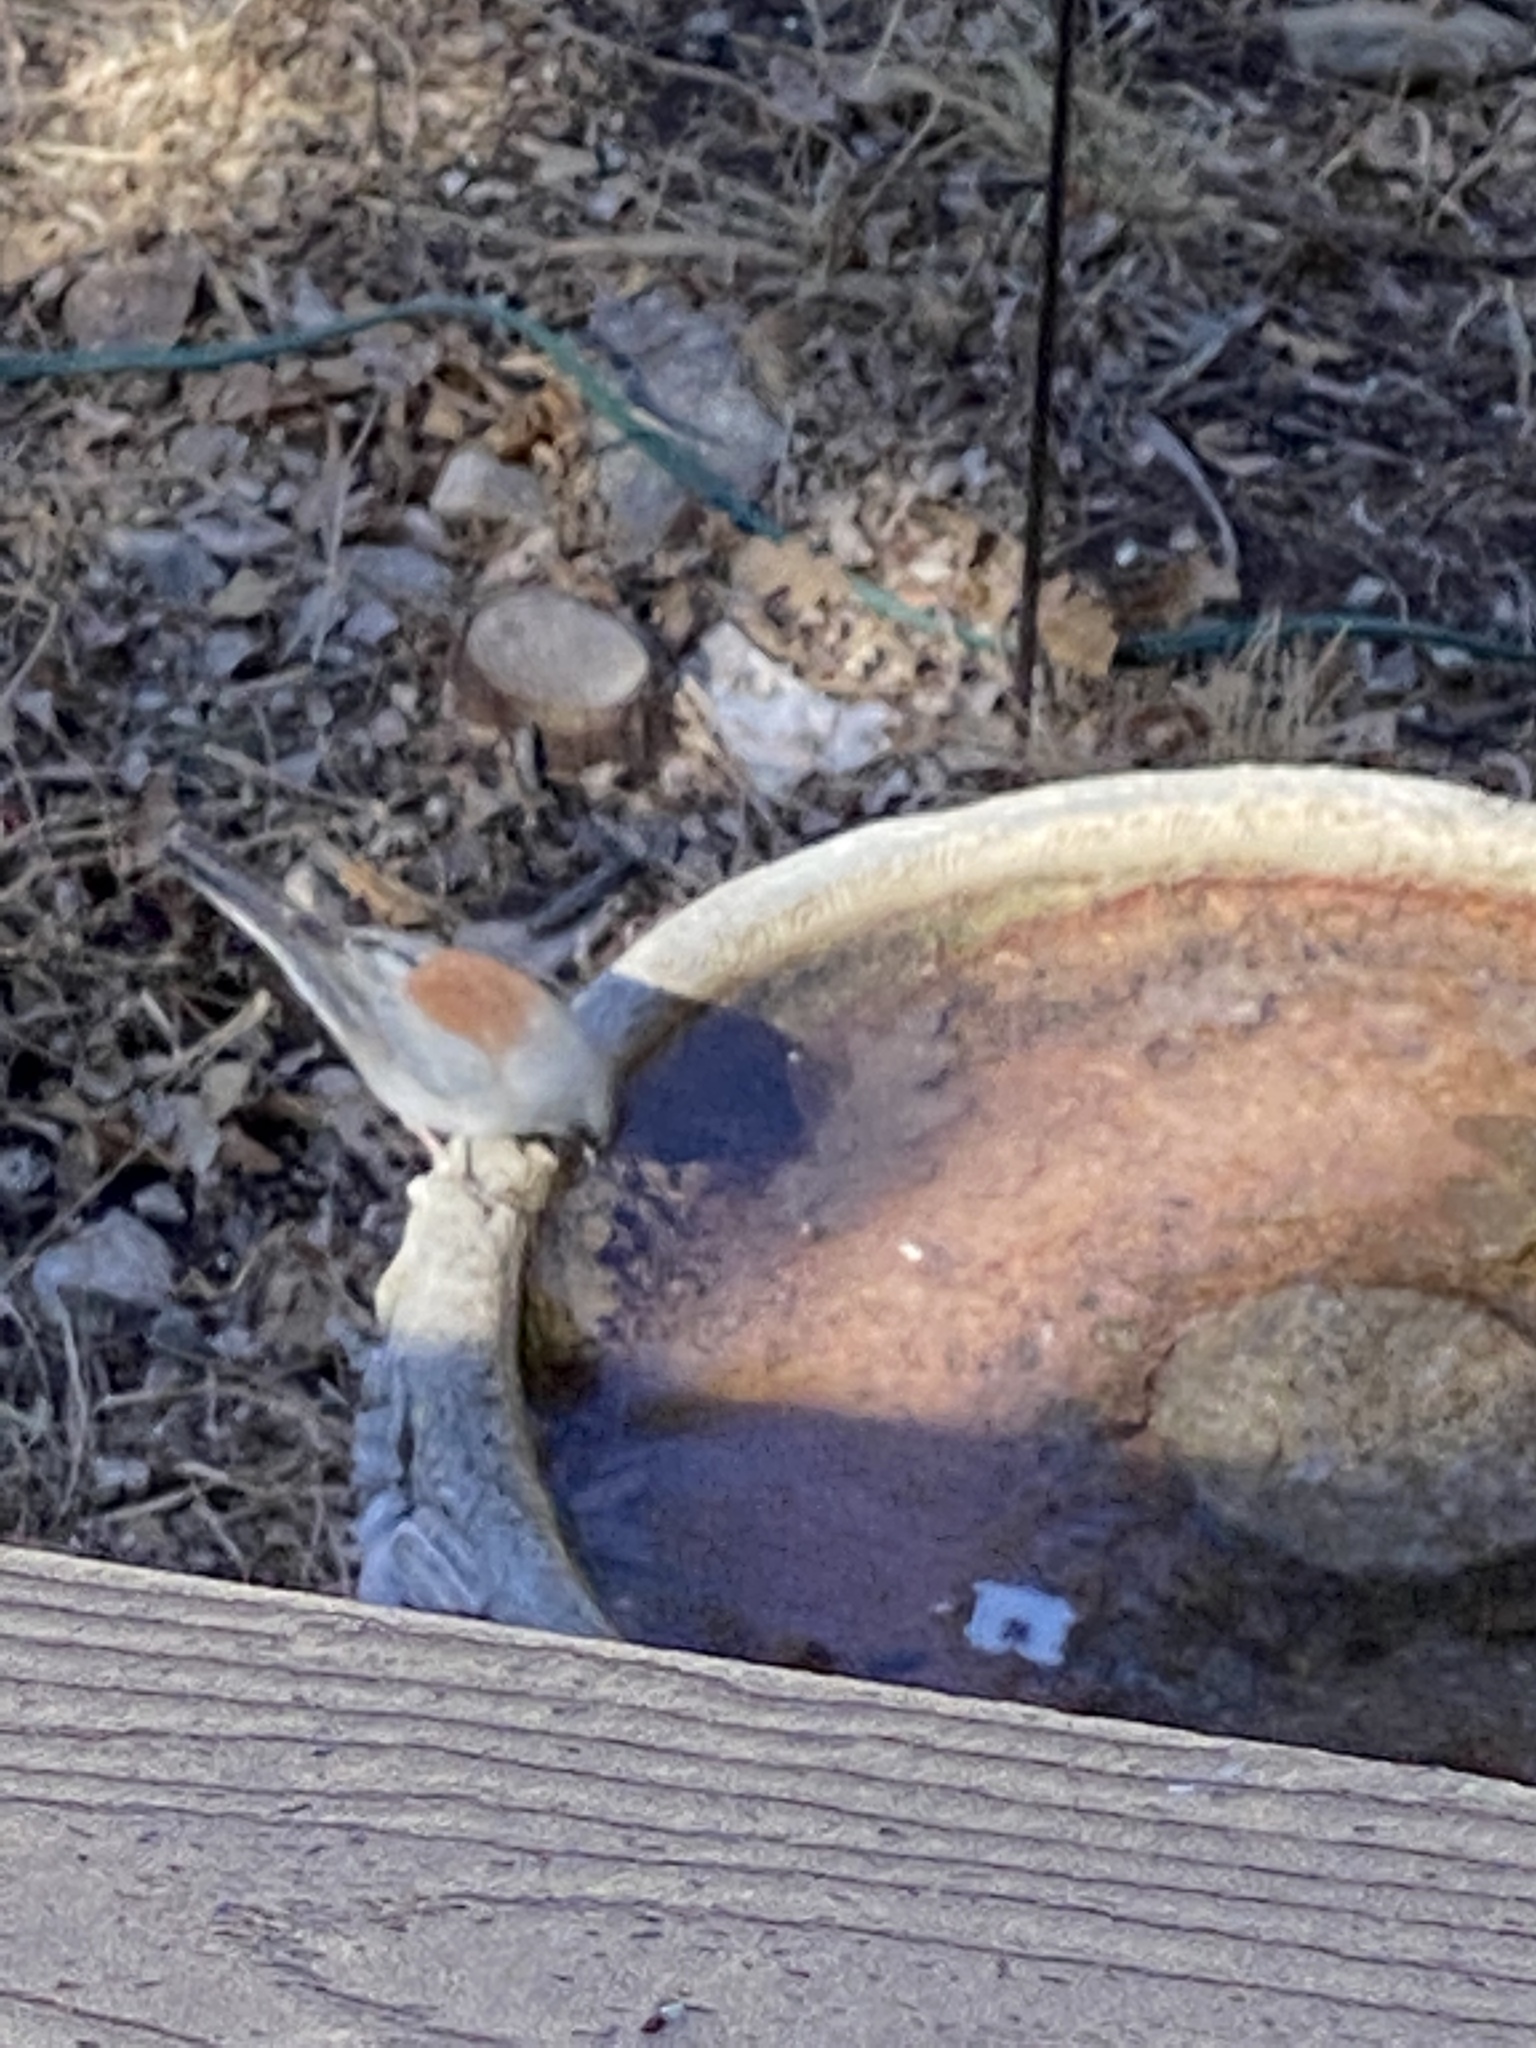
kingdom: Animalia
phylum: Chordata
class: Aves
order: Passeriformes
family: Passerellidae
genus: Junco
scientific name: Junco hyemalis
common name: Dark-eyed junco
